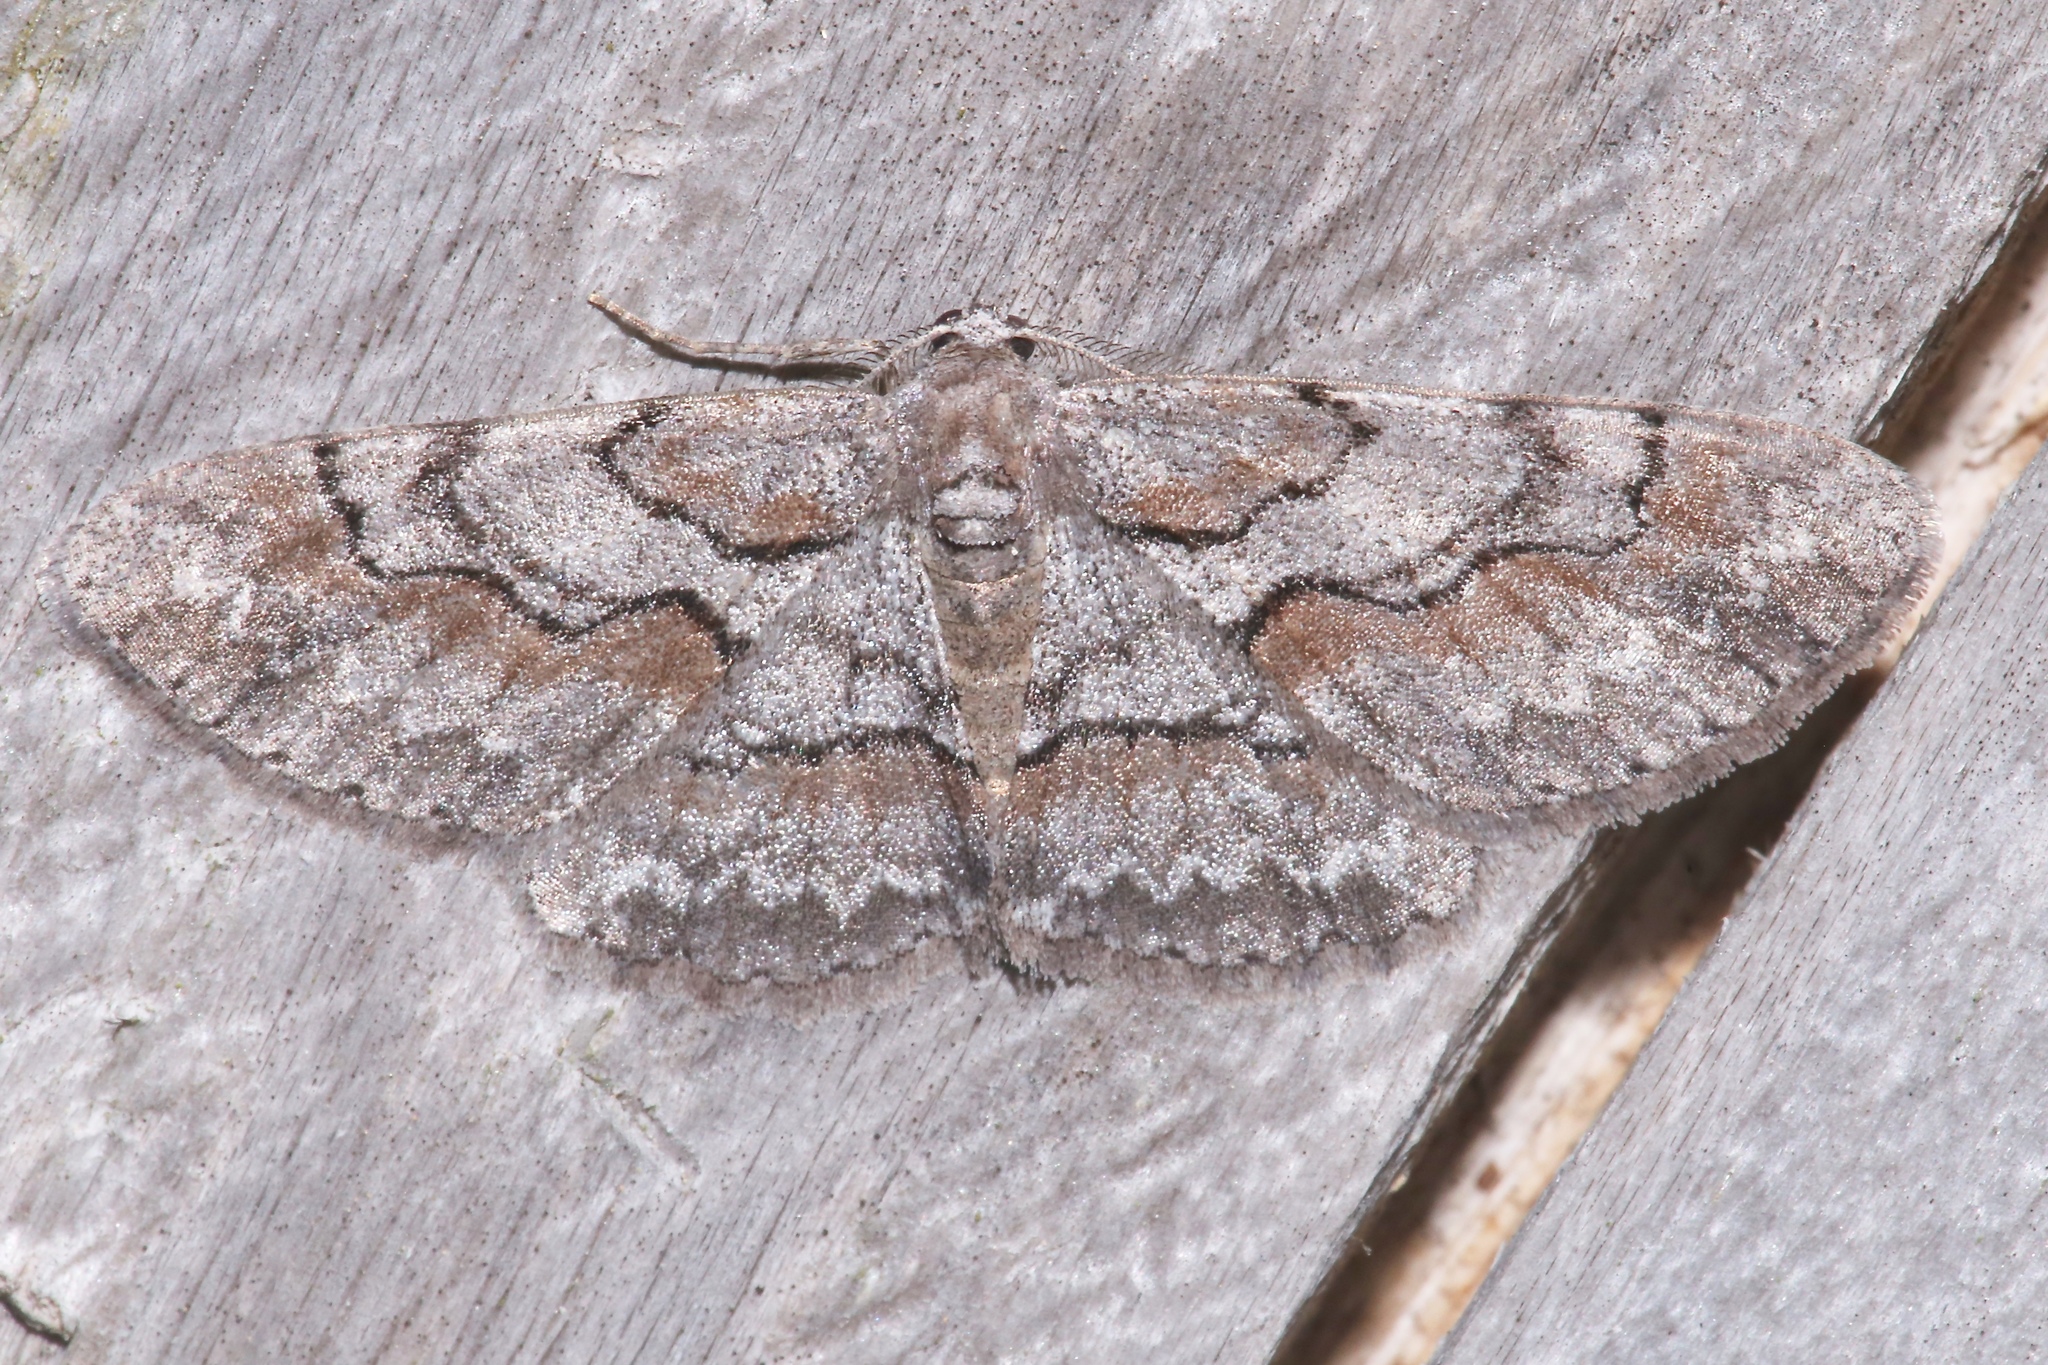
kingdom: Animalia
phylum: Arthropoda
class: Insecta
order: Lepidoptera
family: Geometridae
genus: Iridopsis
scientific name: Iridopsis vellivolata
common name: Large purplish gray
